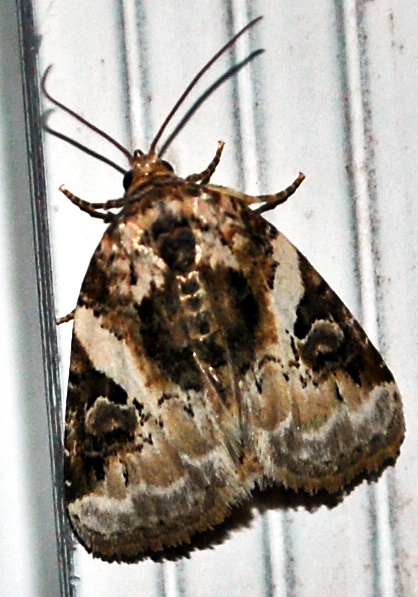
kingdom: Animalia
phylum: Arthropoda
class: Insecta
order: Lepidoptera
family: Noctuidae
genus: Pseudeustrotia
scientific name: Pseudeustrotia carneola
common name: Pink-barred lithacodia moth
